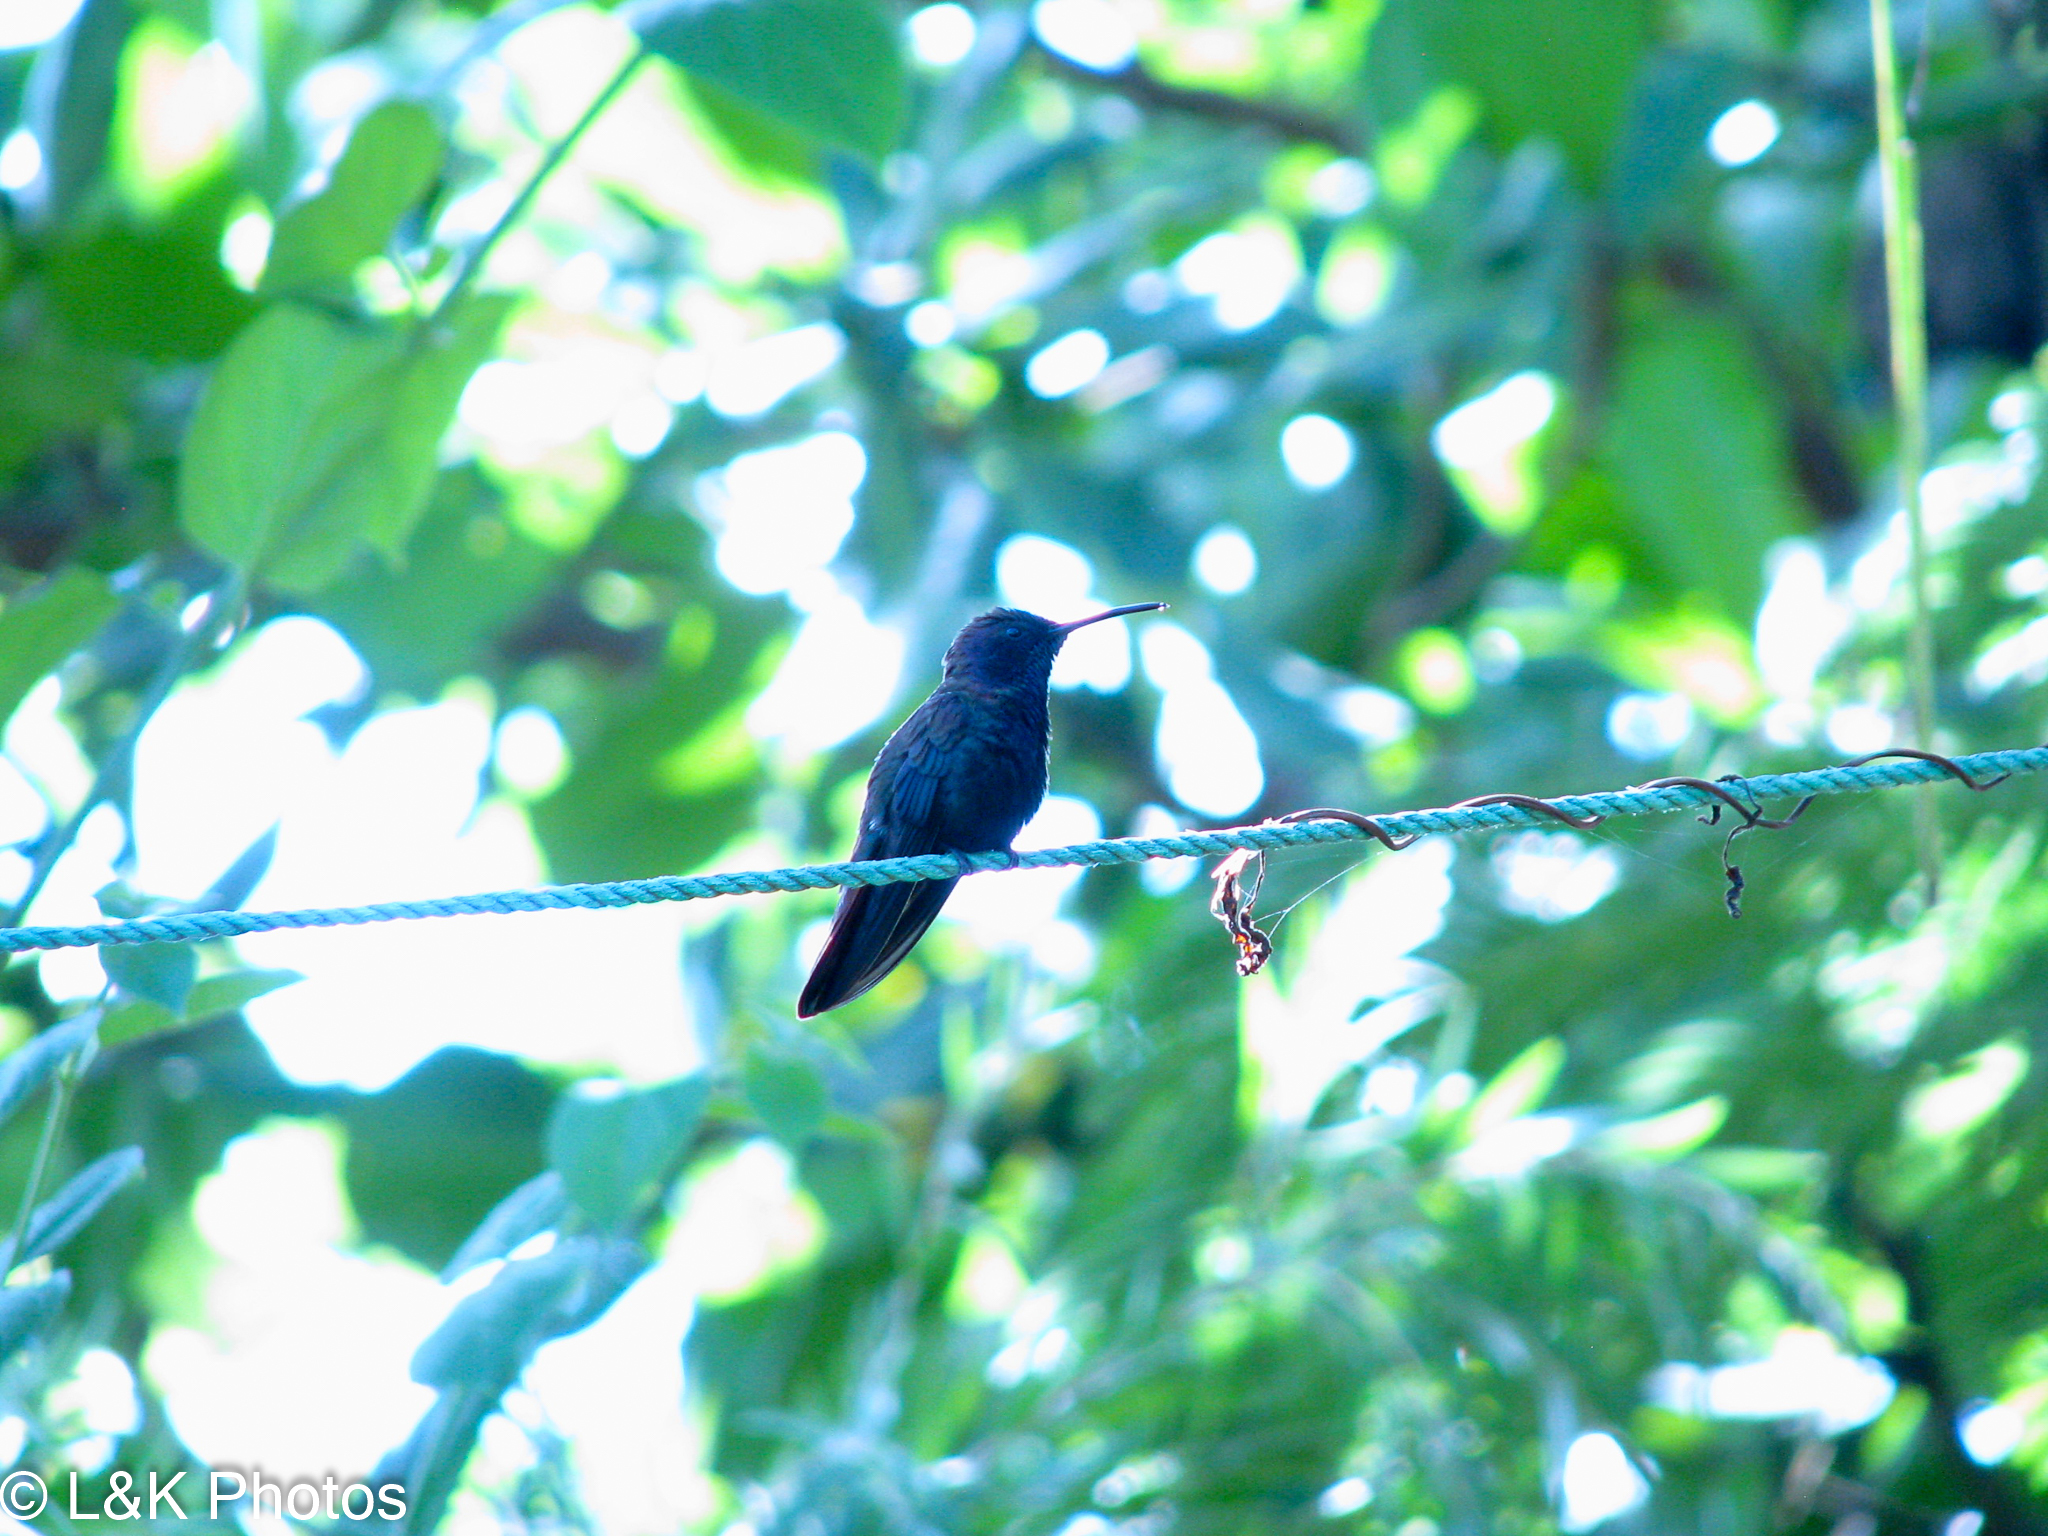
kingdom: Animalia
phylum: Chordata
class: Aves
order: Apodiformes
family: Trochilidae
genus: Anthracothorax
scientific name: Anthracothorax mango
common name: Jamaican mango
